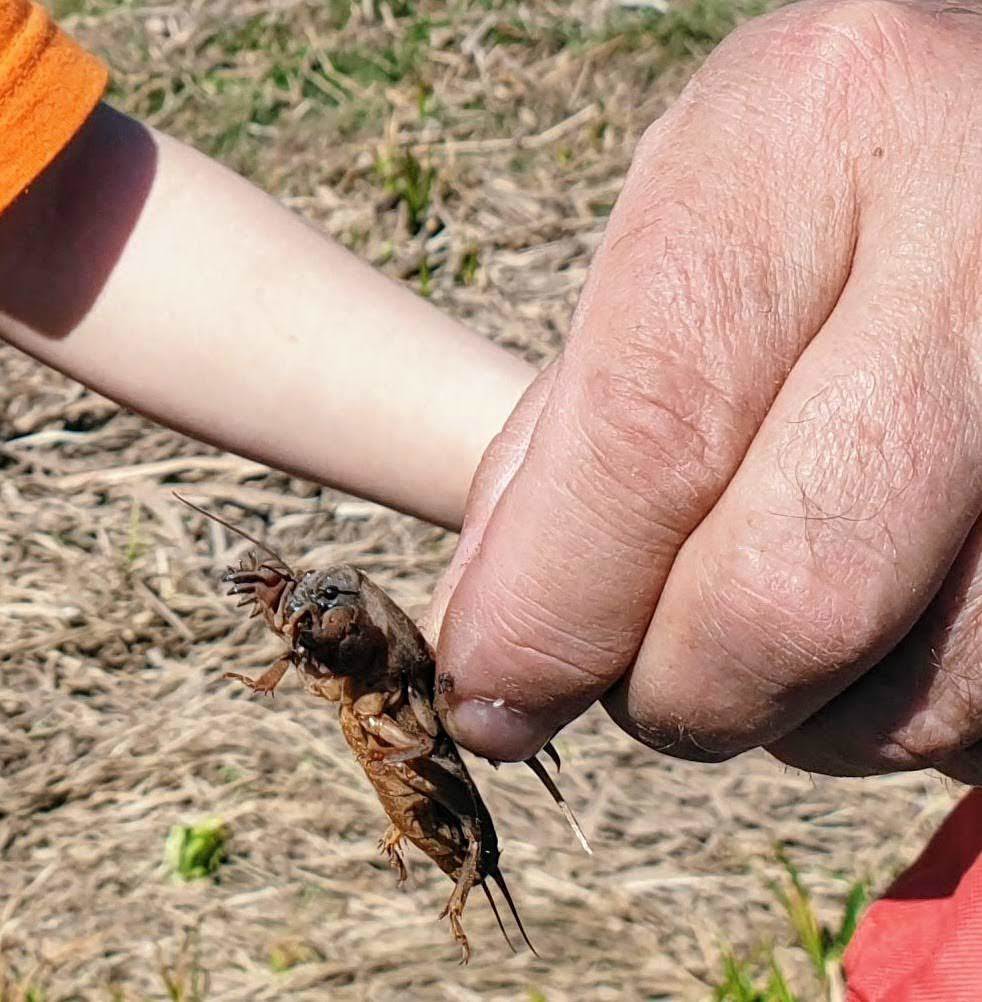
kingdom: Animalia
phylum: Arthropoda
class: Insecta
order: Orthoptera
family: Gryllotalpidae
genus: Gryllotalpa
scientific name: Gryllotalpa gryllotalpa
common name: European mole cricket
